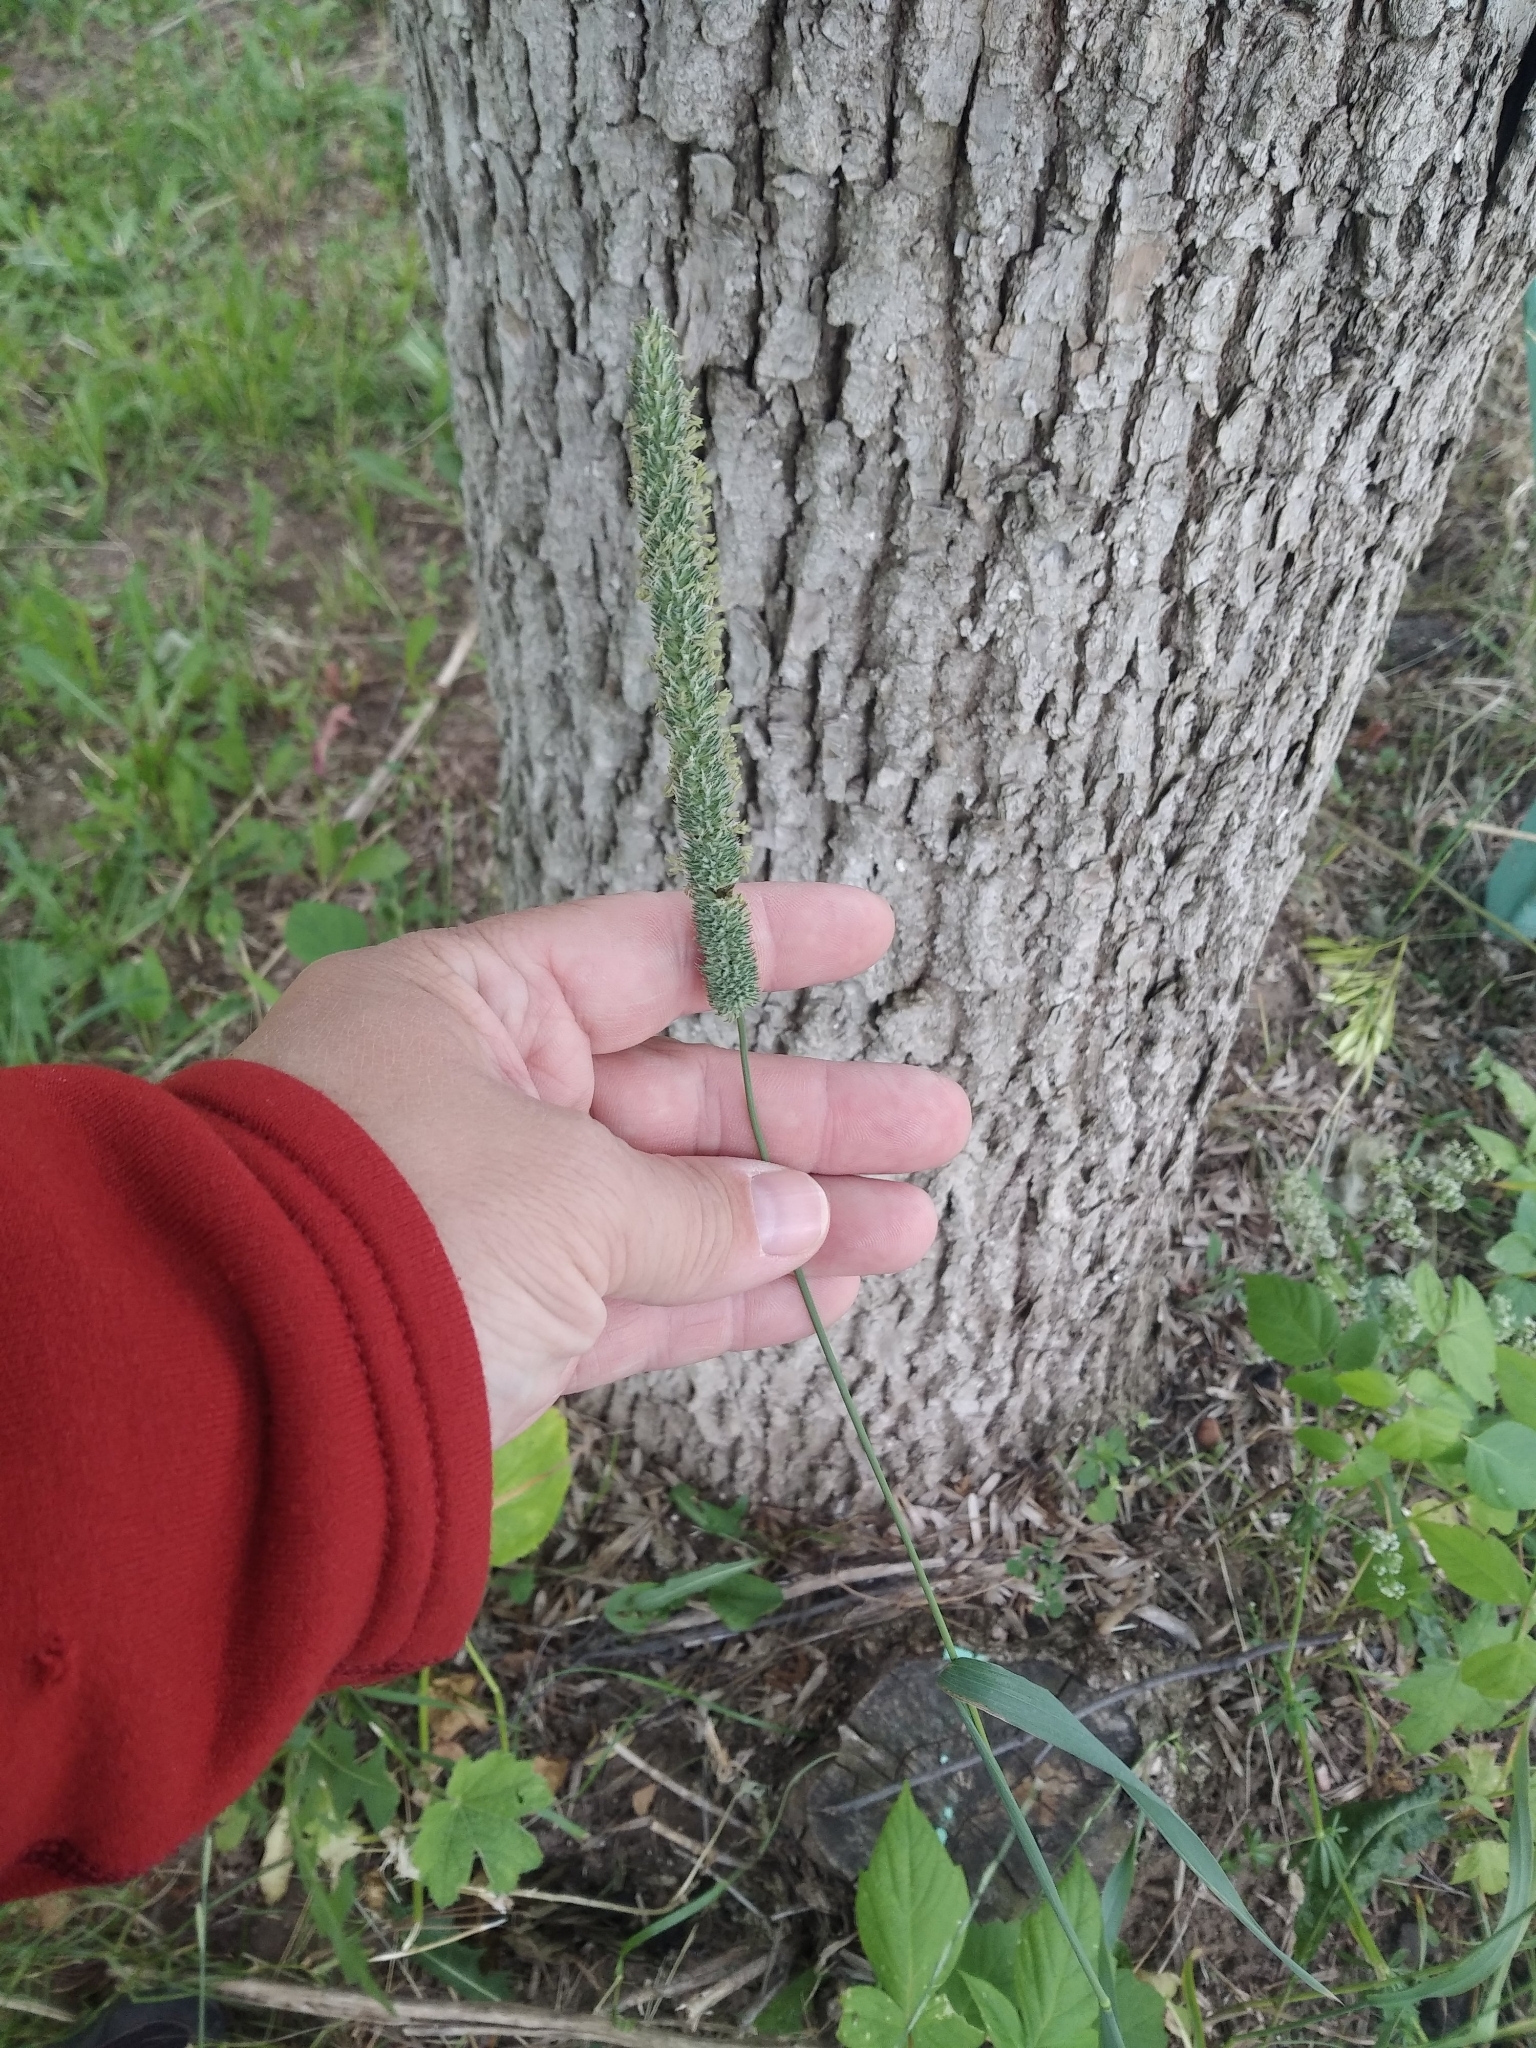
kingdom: Plantae
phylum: Tracheophyta
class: Liliopsida
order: Poales
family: Poaceae
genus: Phleum
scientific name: Phleum pratense
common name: Timothy grass
